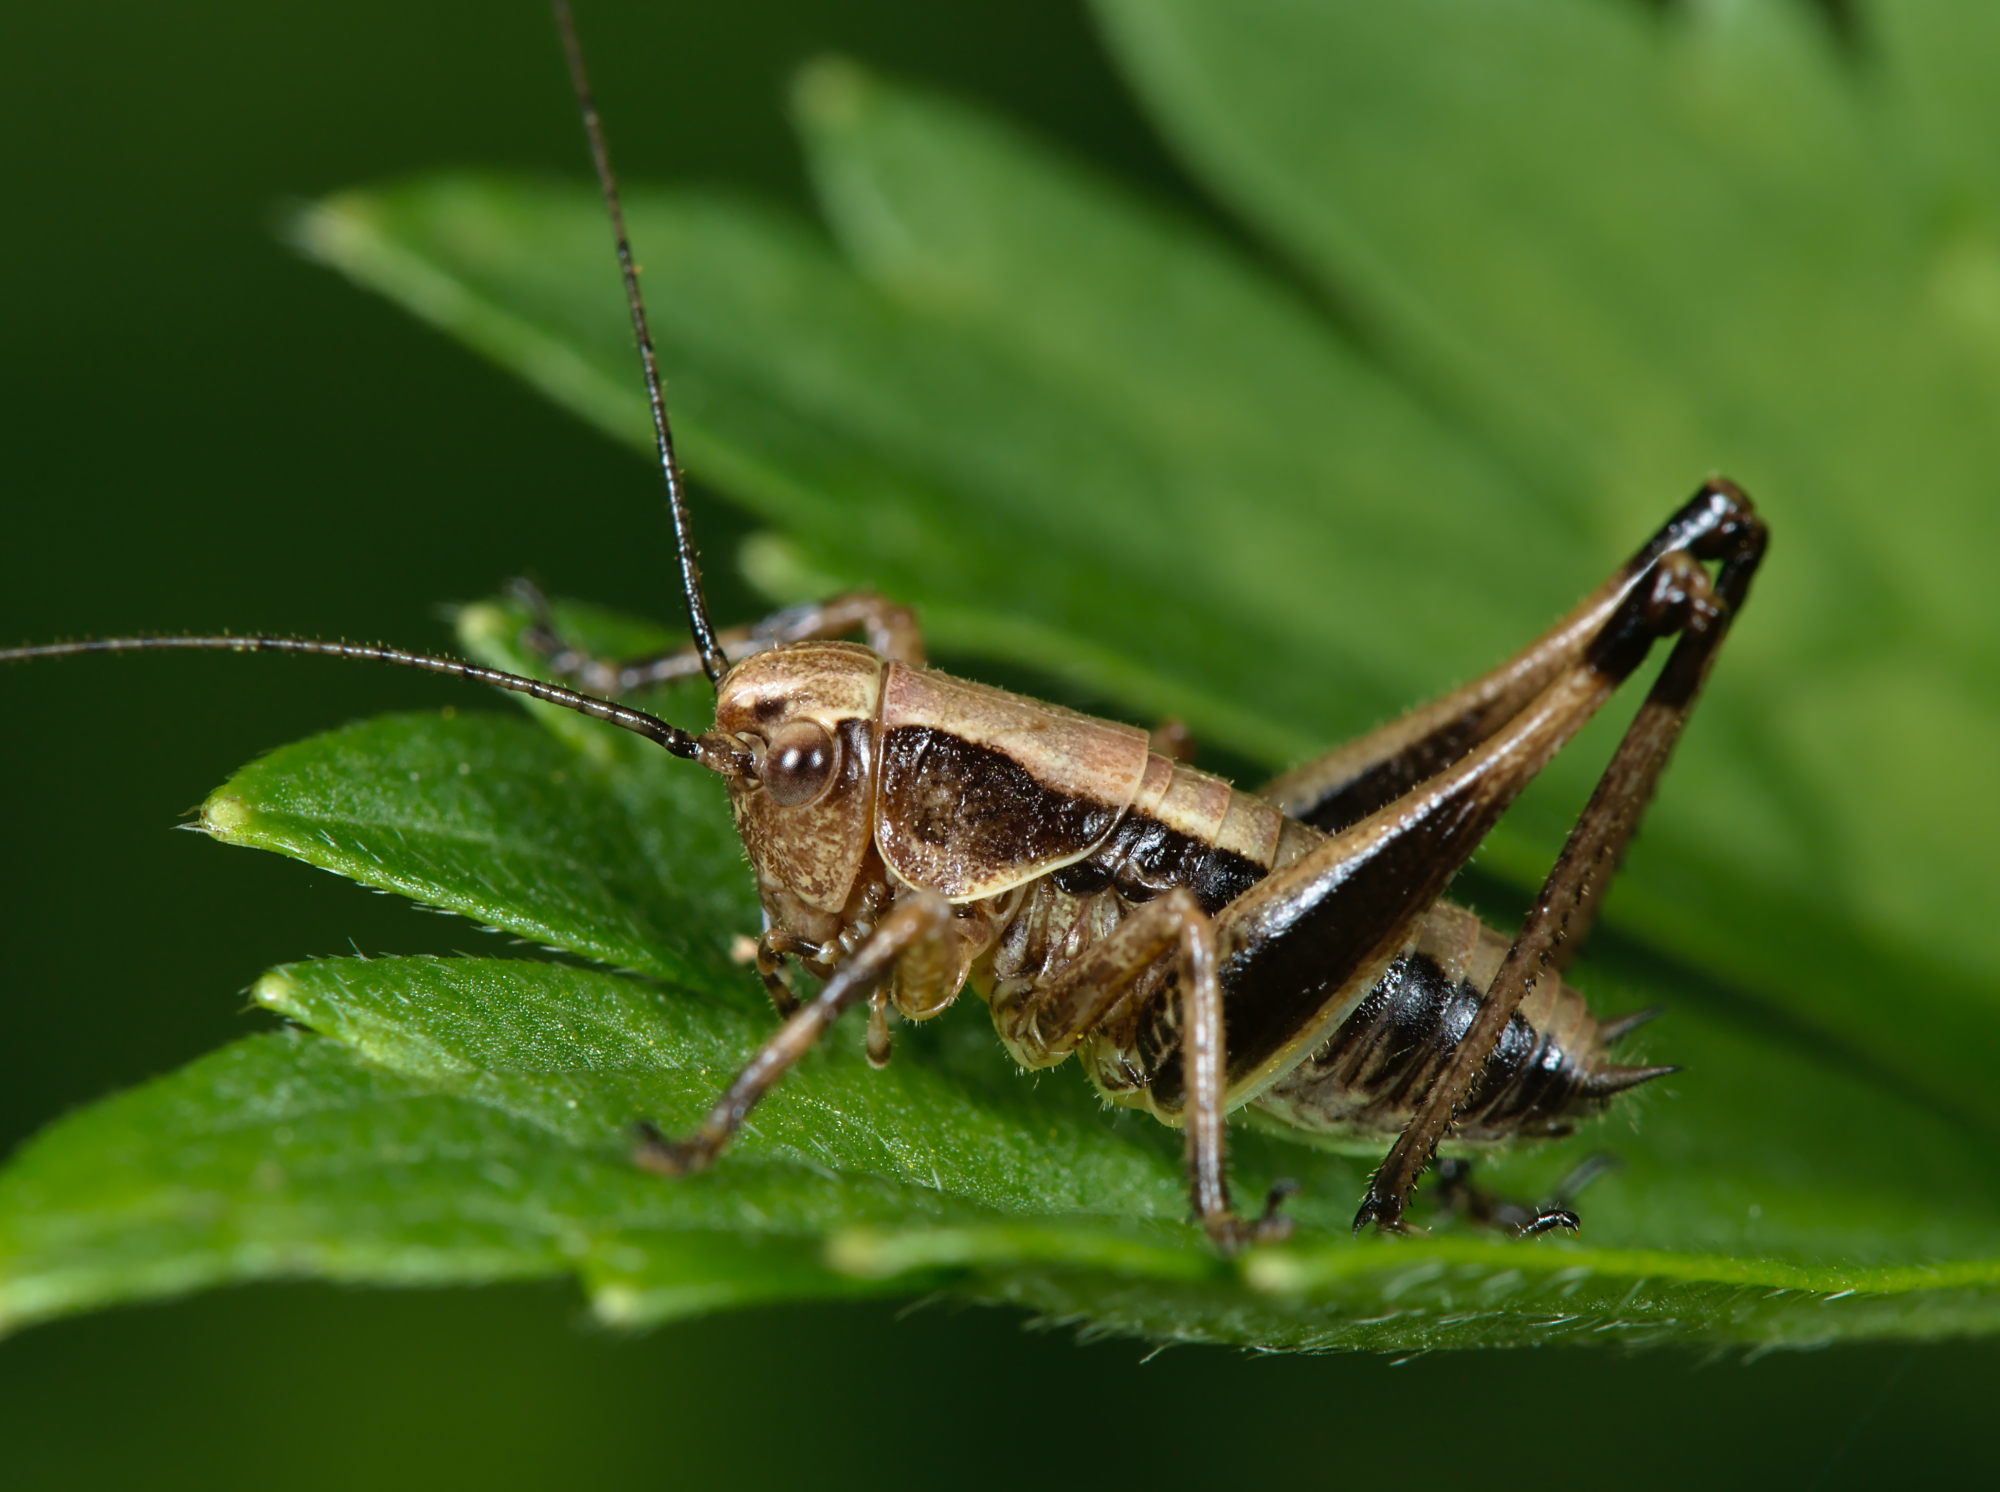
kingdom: Animalia
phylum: Arthropoda
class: Insecta
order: Orthoptera
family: Tettigoniidae
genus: Pholidoptera
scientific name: Pholidoptera griseoaptera
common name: Dark bush-cricket
